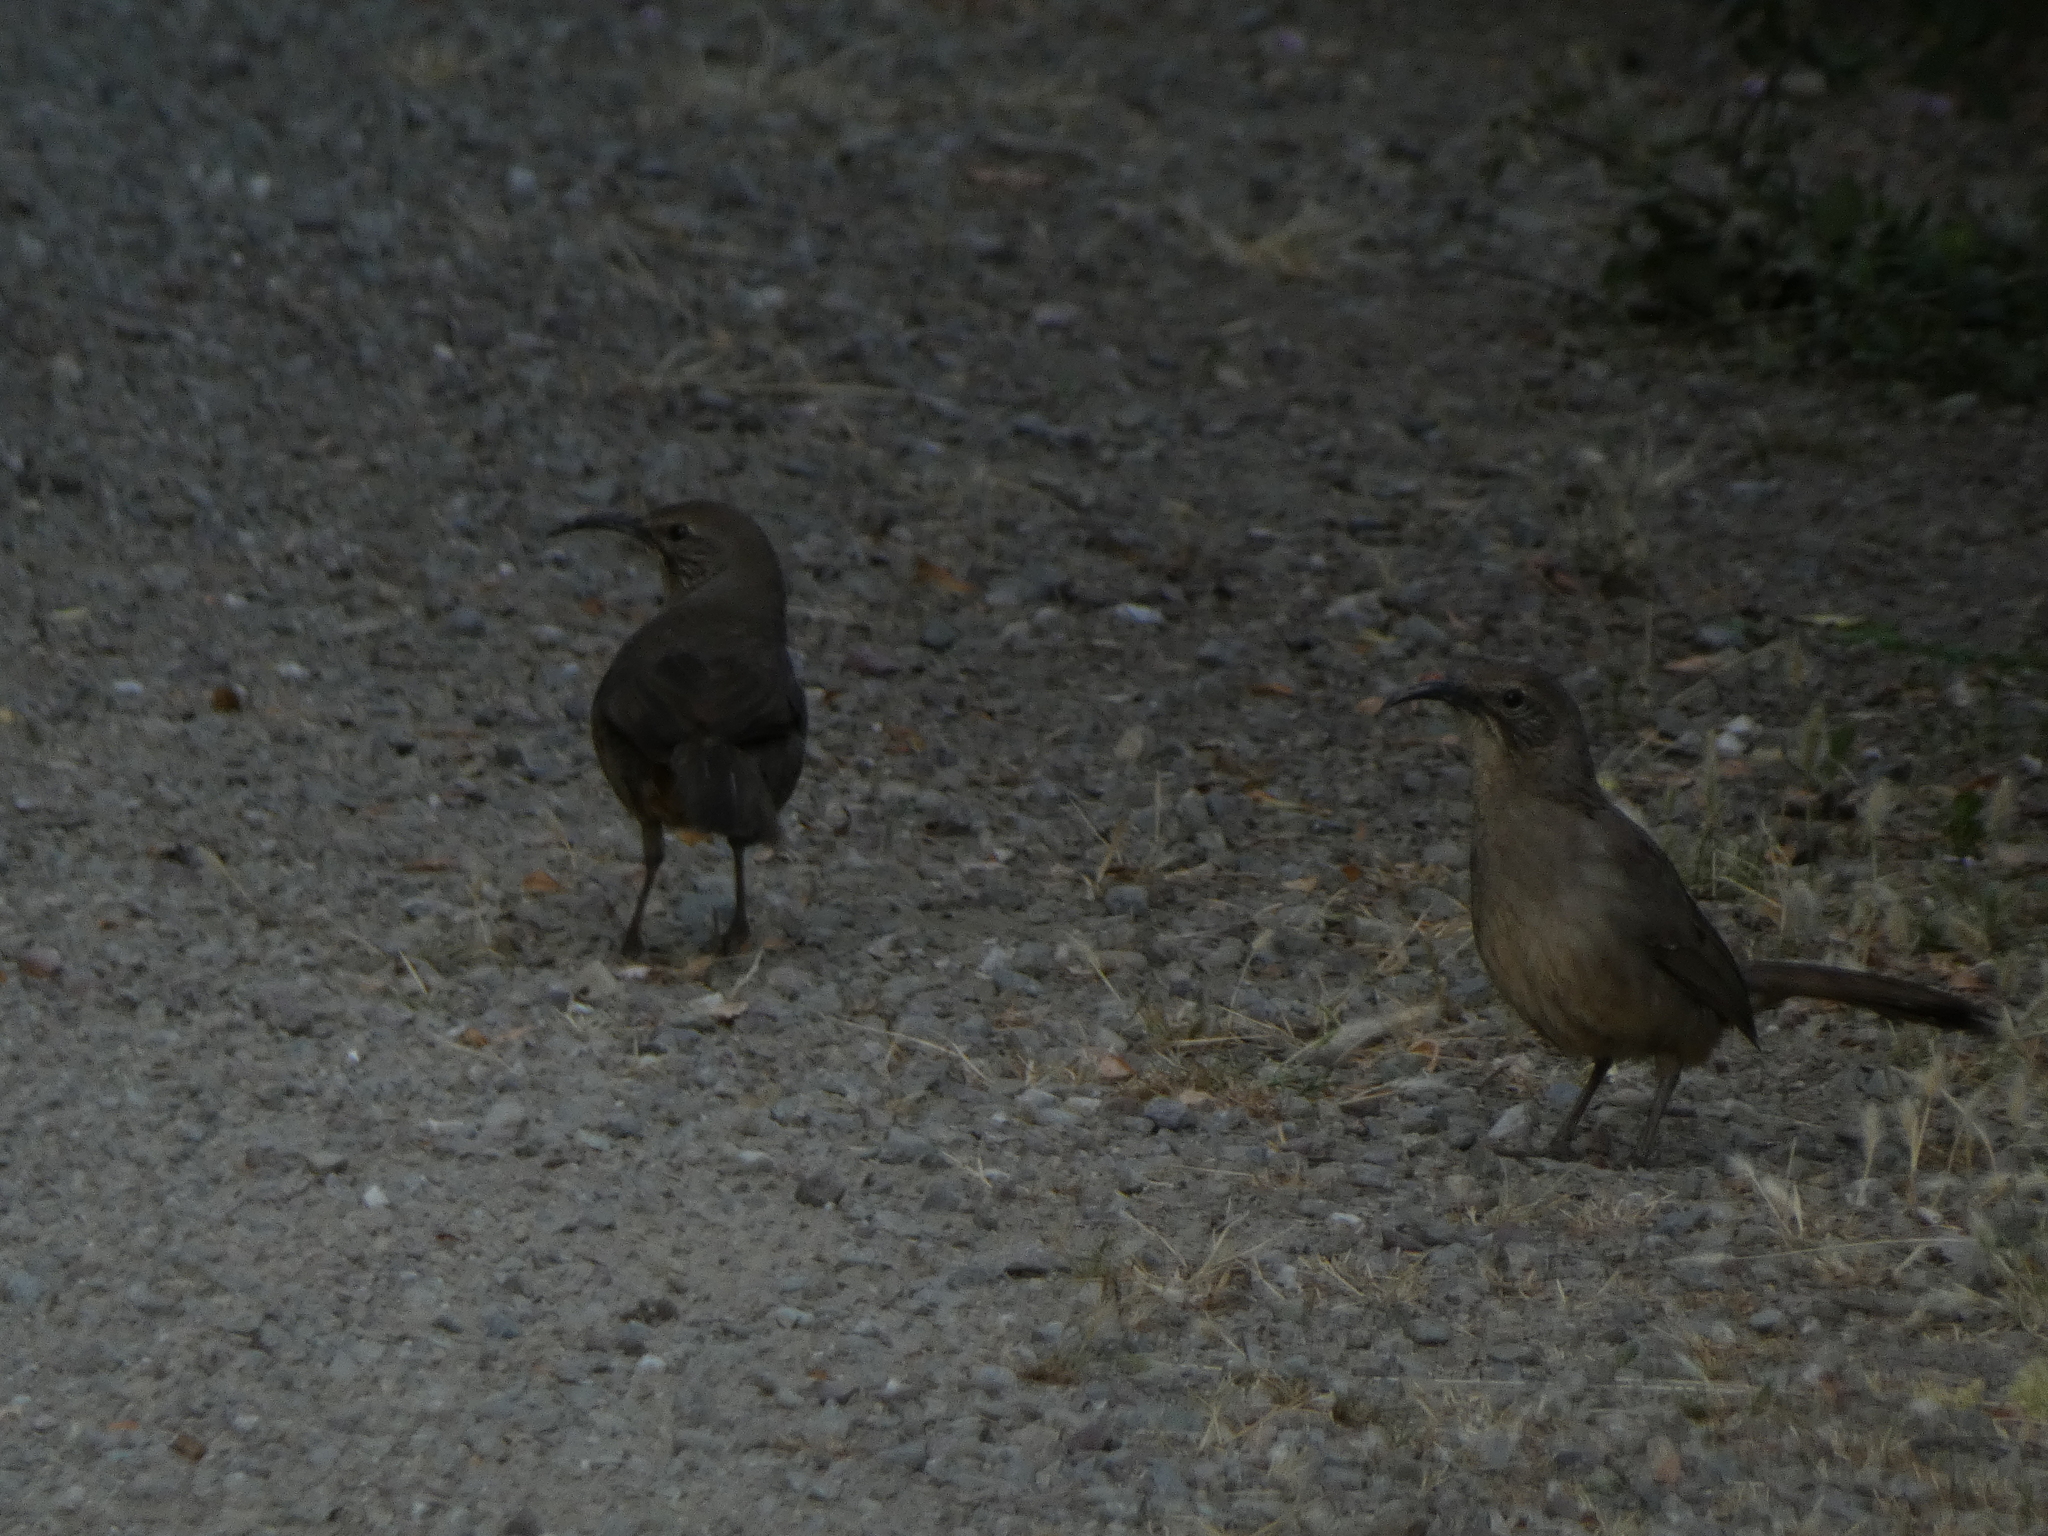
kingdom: Animalia
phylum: Chordata
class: Aves
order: Passeriformes
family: Mimidae
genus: Toxostoma
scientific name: Toxostoma redivivum
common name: California thrasher
